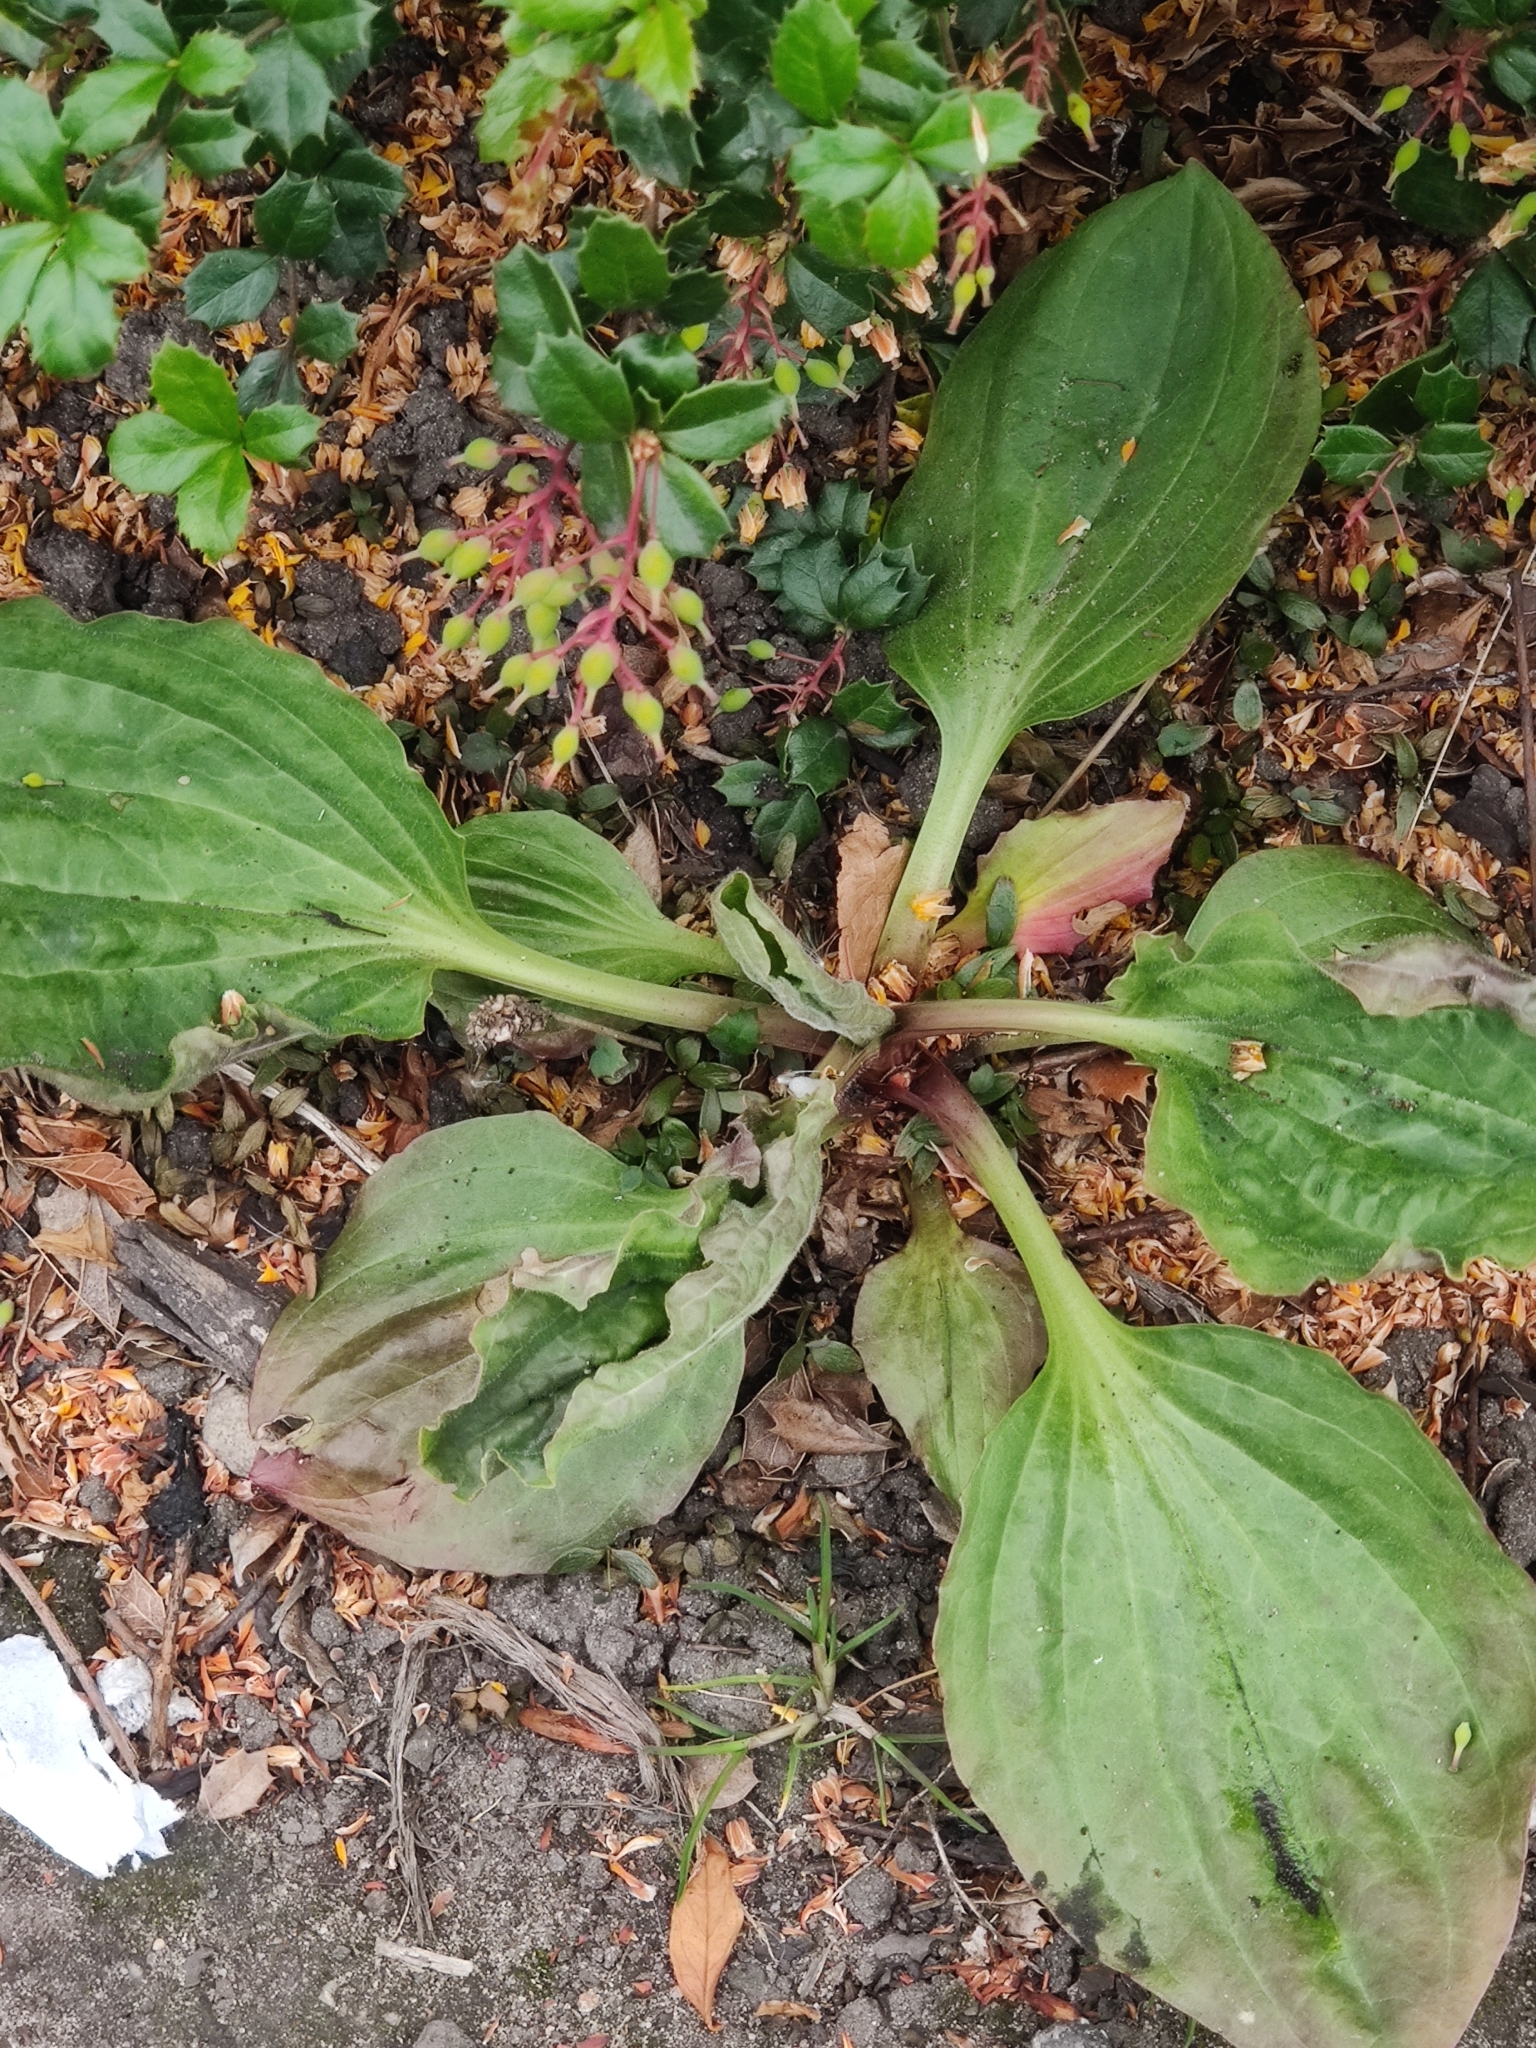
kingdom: Plantae
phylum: Tracheophyta
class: Magnoliopsida
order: Lamiales
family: Plantaginaceae
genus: Plantago
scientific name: Plantago major
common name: Common plantain
